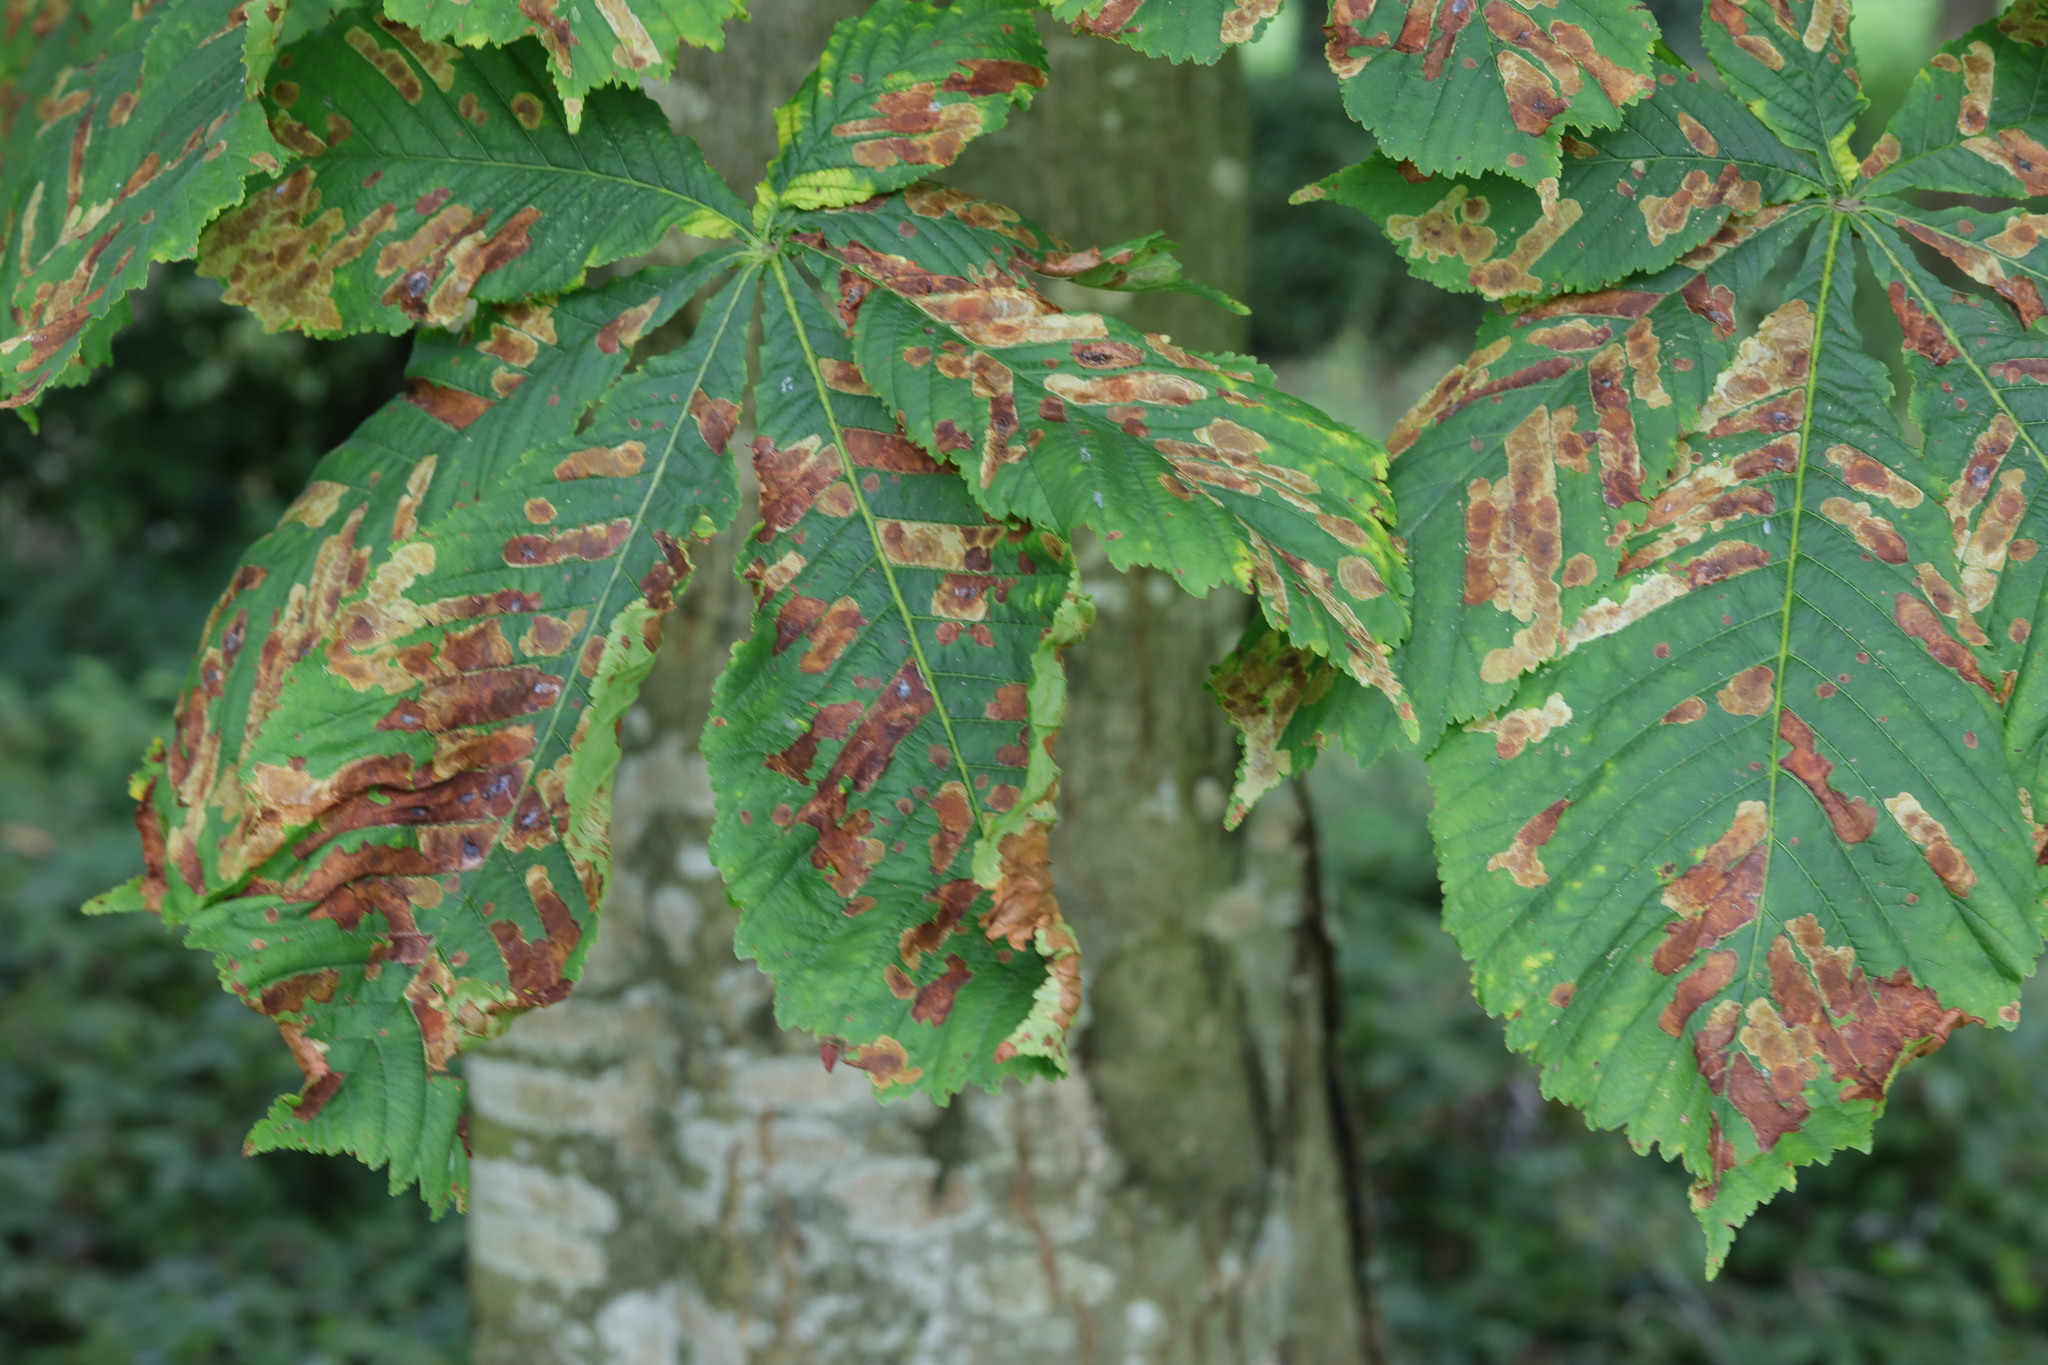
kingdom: Animalia
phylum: Arthropoda
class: Insecta
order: Lepidoptera
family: Gracillariidae
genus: Cameraria
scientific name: Cameraria ohridella
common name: Horse-chestnut leaf-miner
